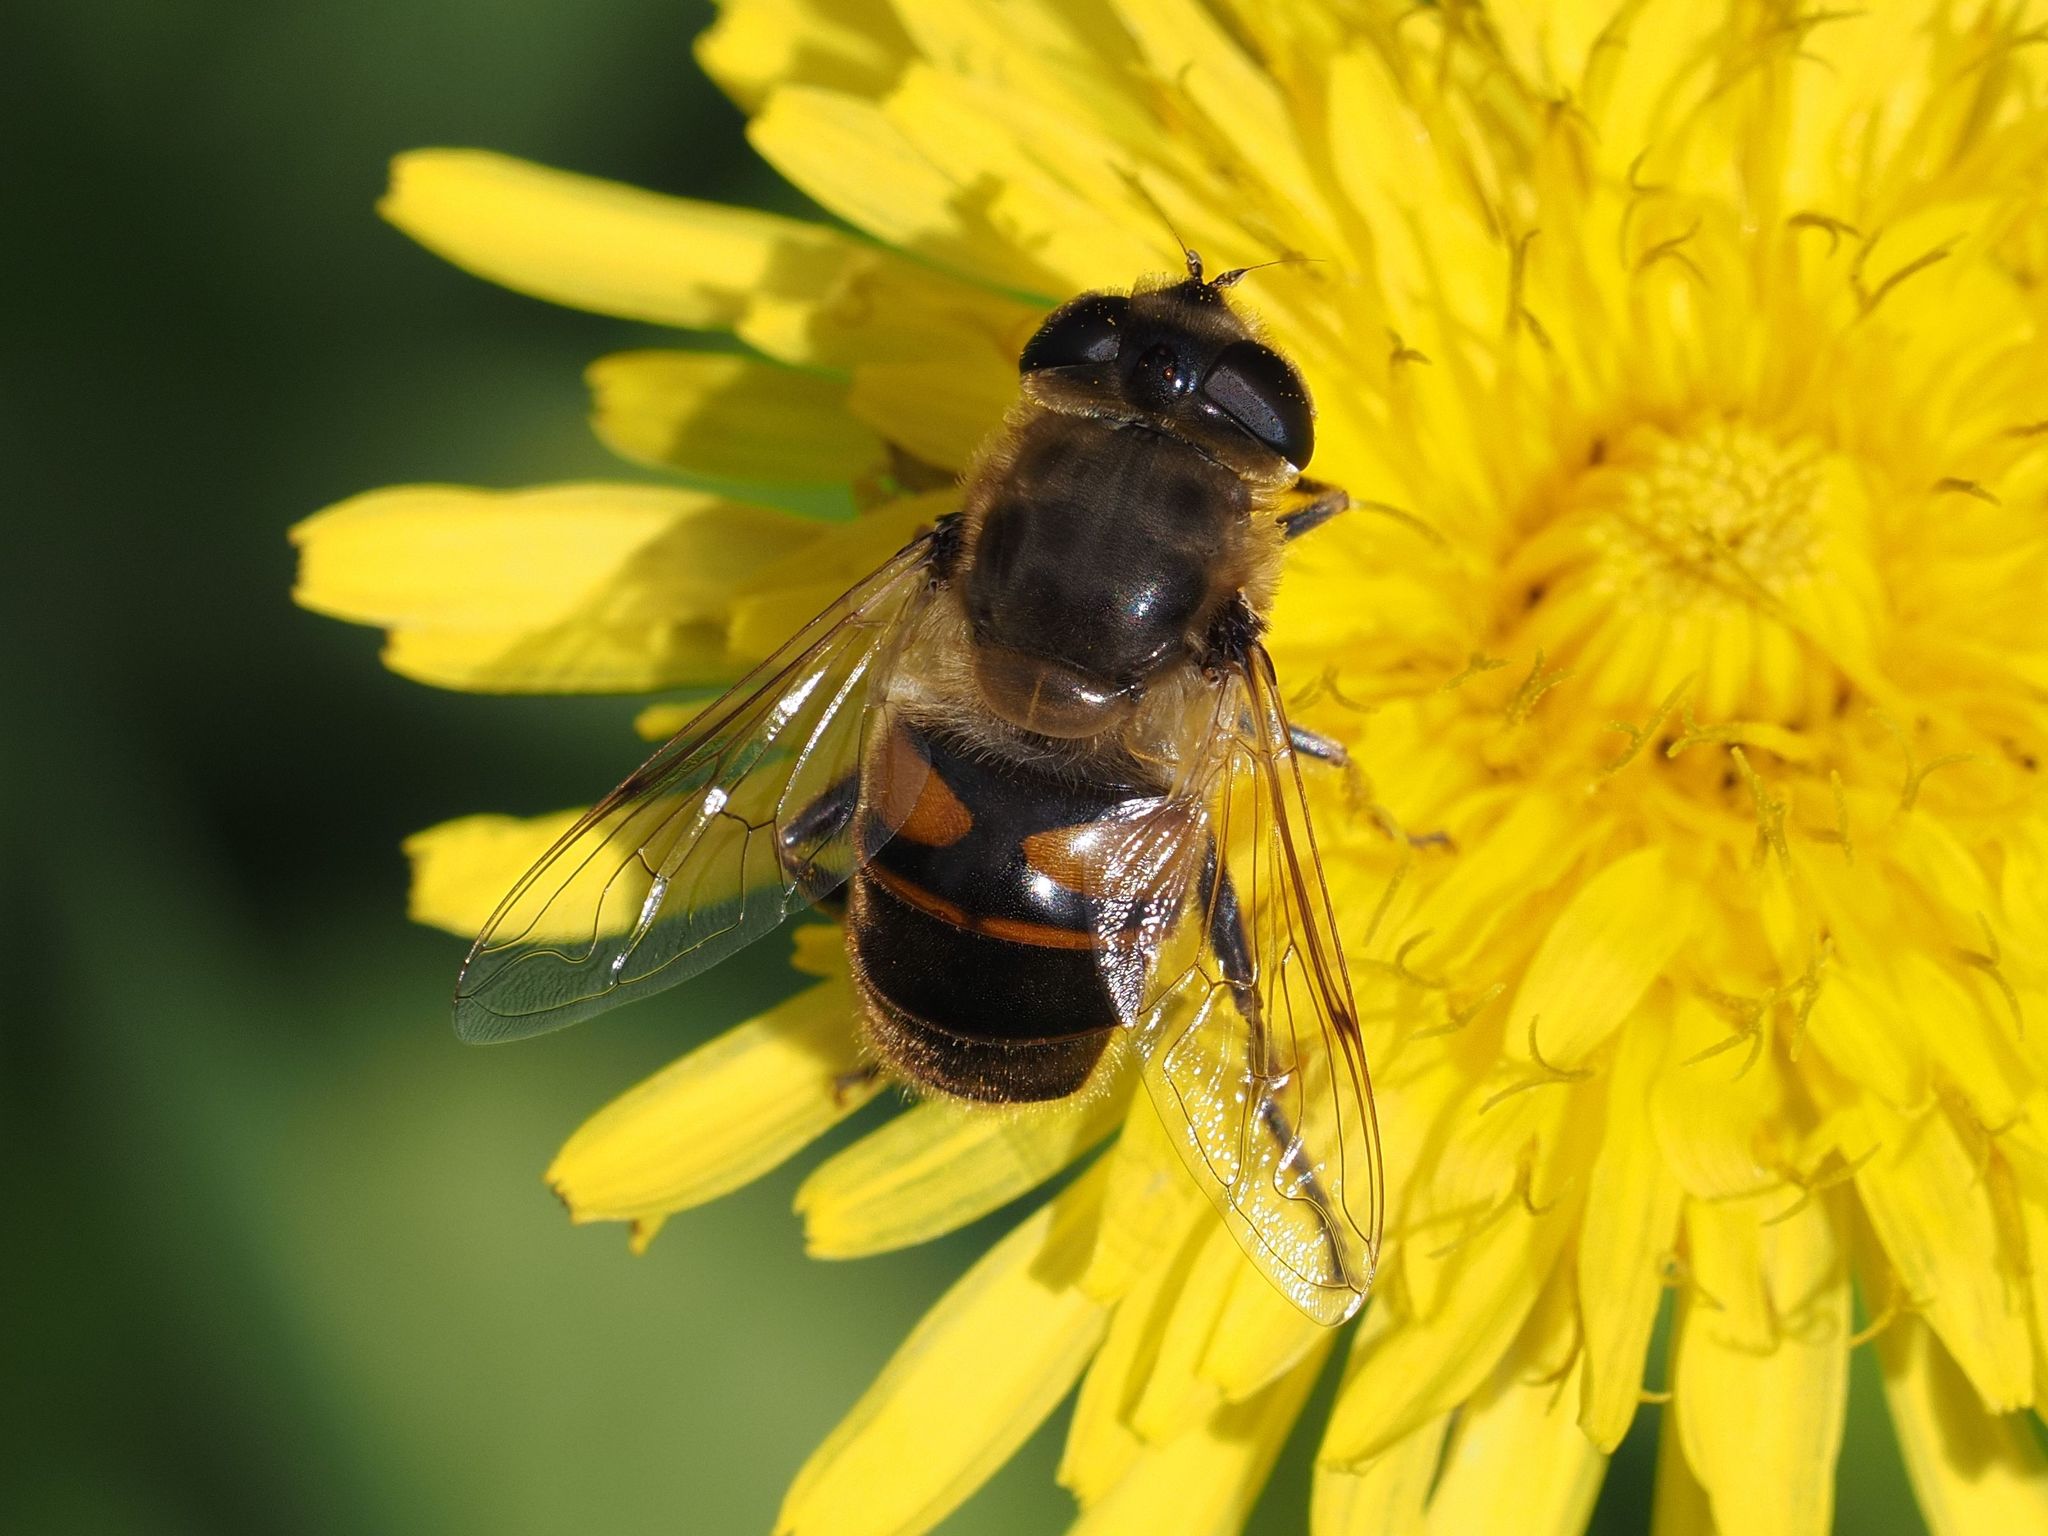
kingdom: Animalia
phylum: Arthropoda
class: Insecta
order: Diptera
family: Syrphidae
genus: Eristalis
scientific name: Eristalis tenax
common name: Drone fly
